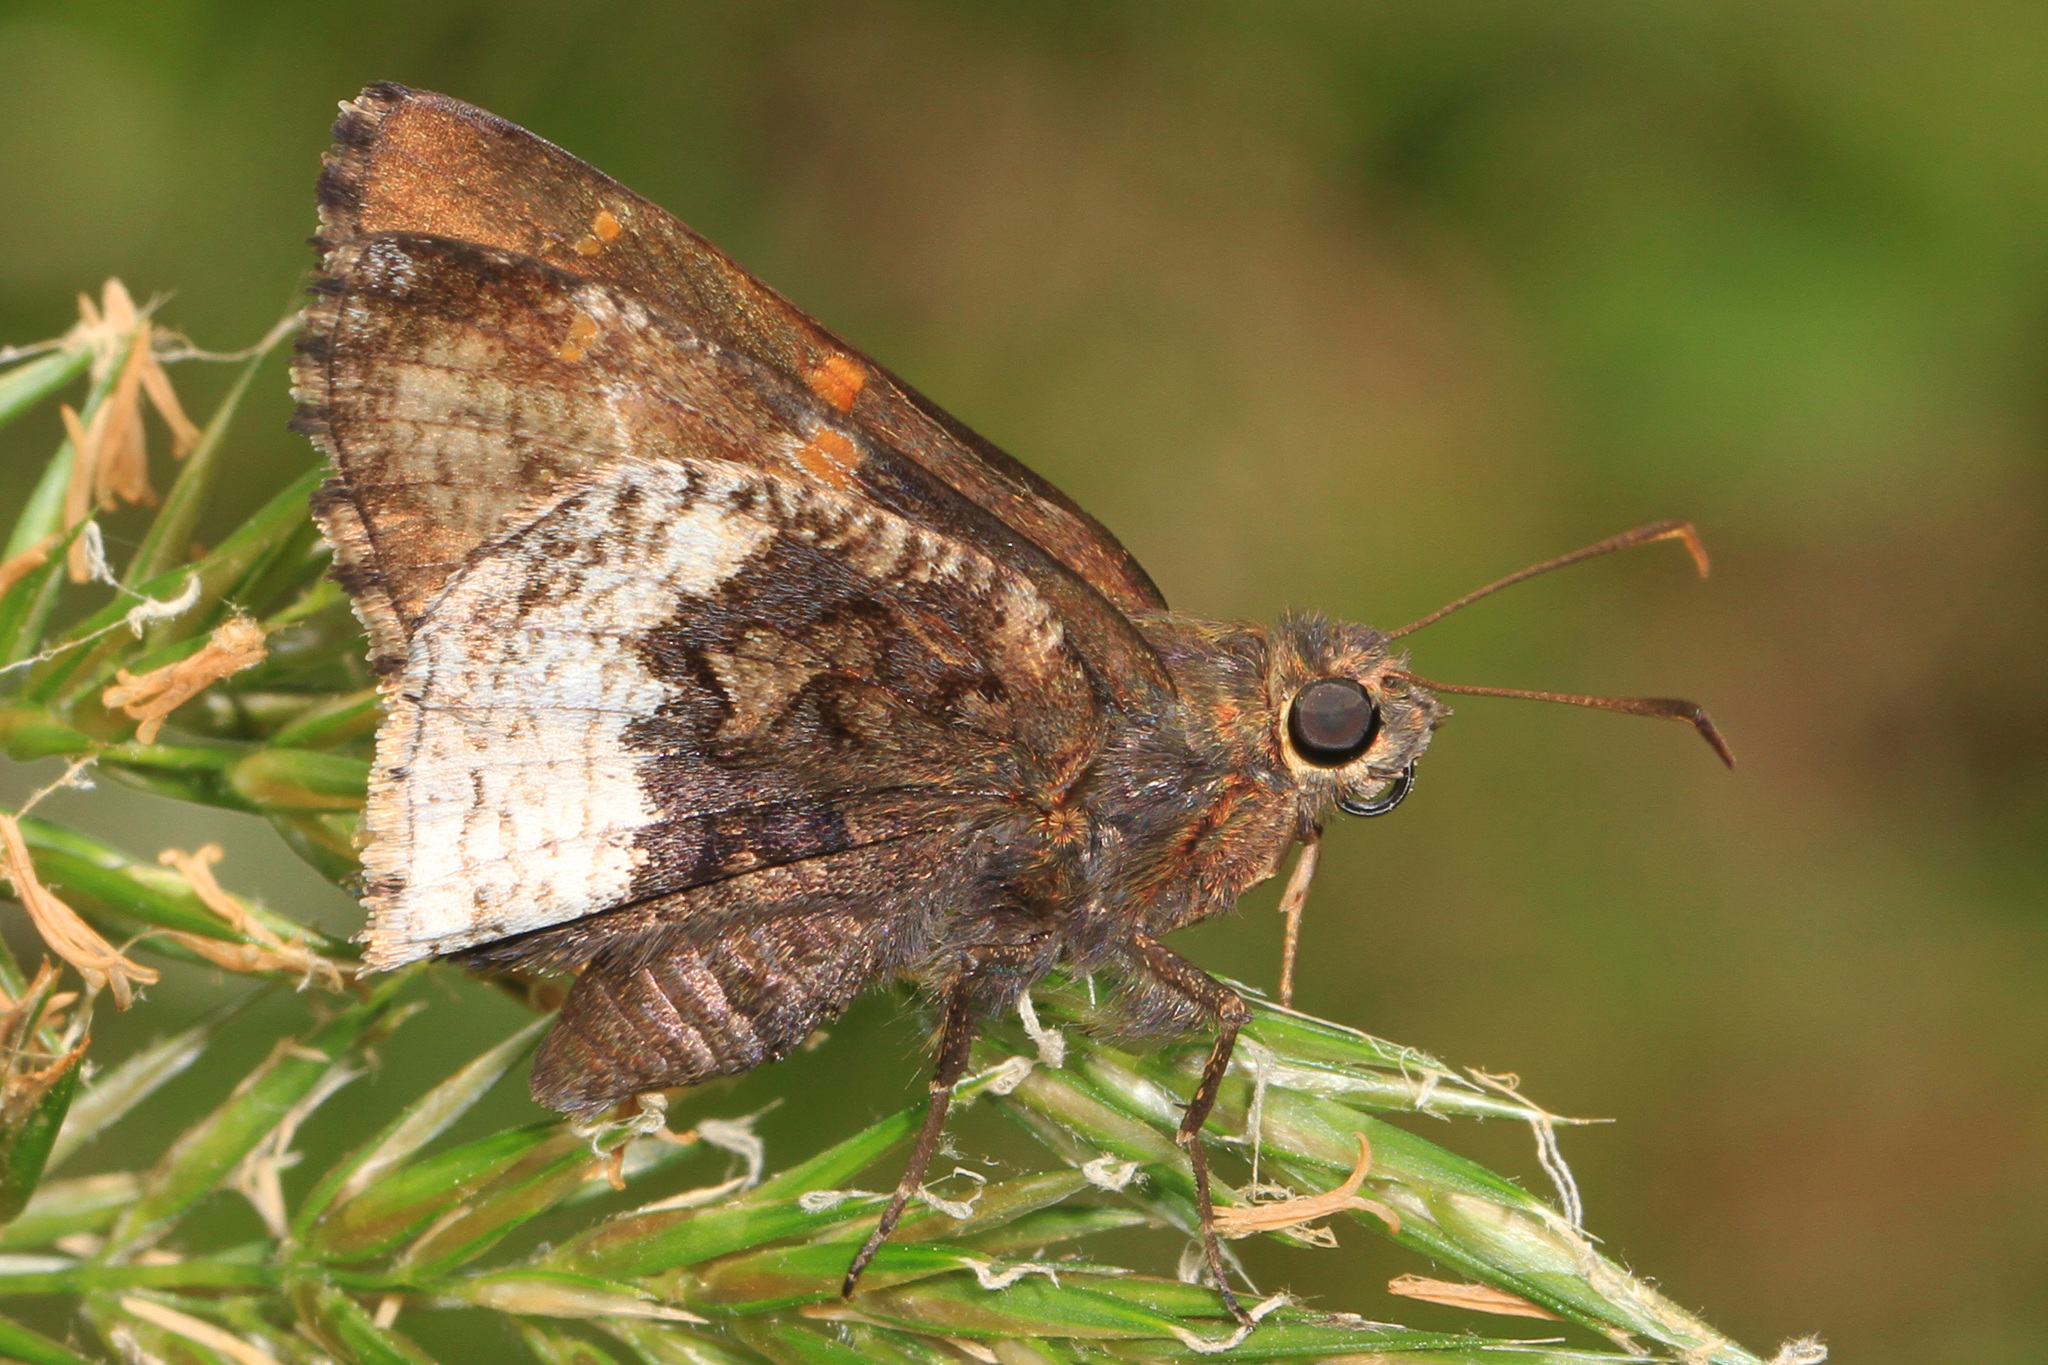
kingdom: Animalia
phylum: Arthropoda
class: Insecta
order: Lepidoptera
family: Hesperiidae
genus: Thorybes
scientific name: Thorybes lyciades
